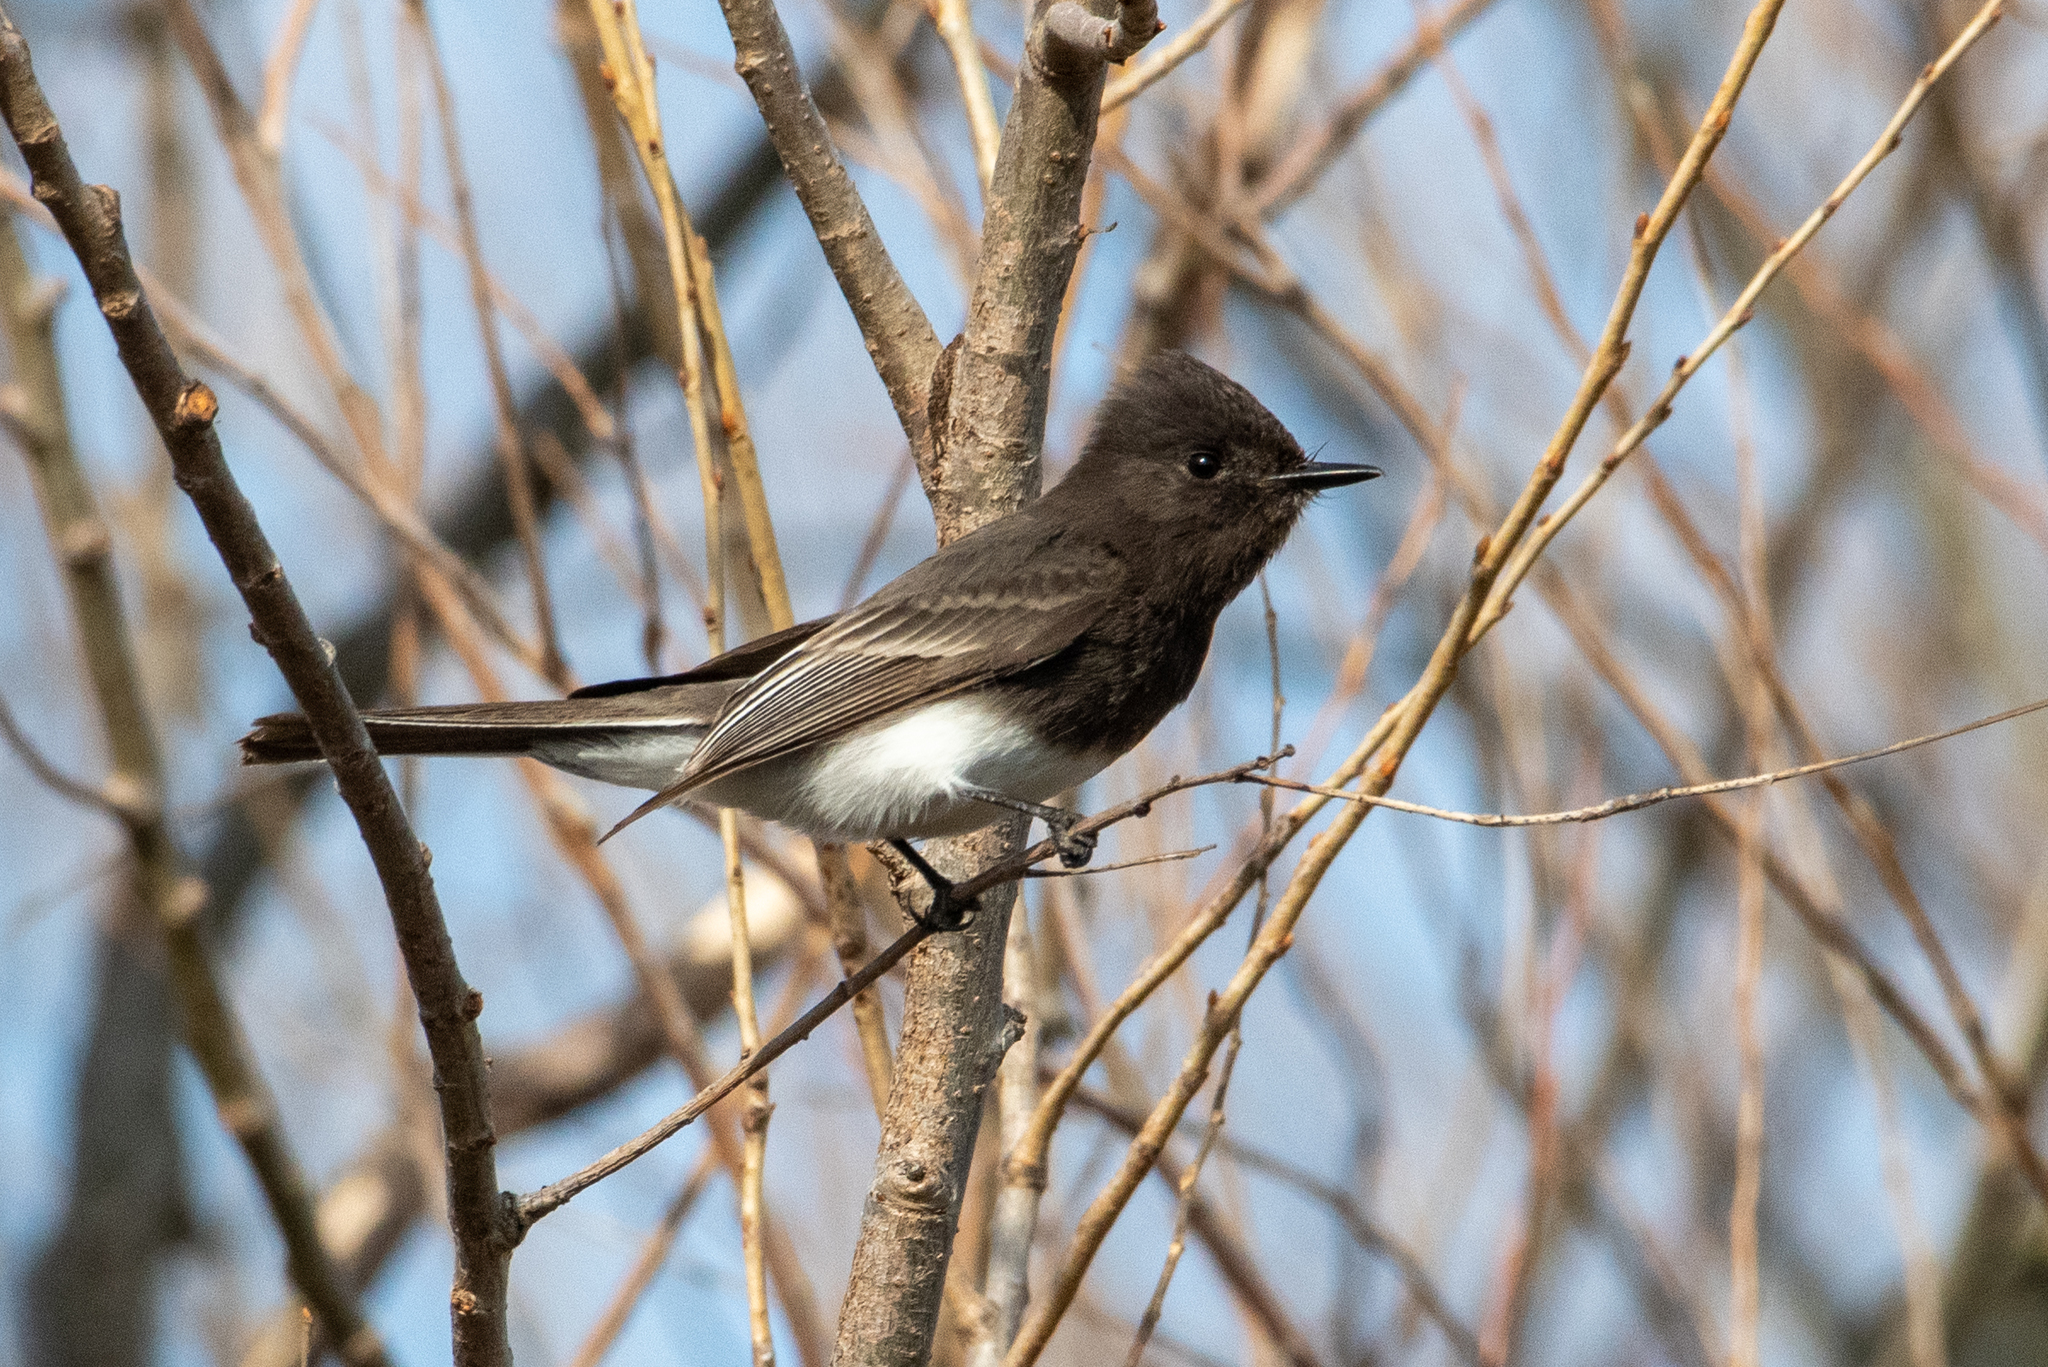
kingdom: Animalia
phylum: Chordata
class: Aves
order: Passeriformes
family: Tyrannidae
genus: Sayornis
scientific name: Sayornis nigricans
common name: Black phoebe
